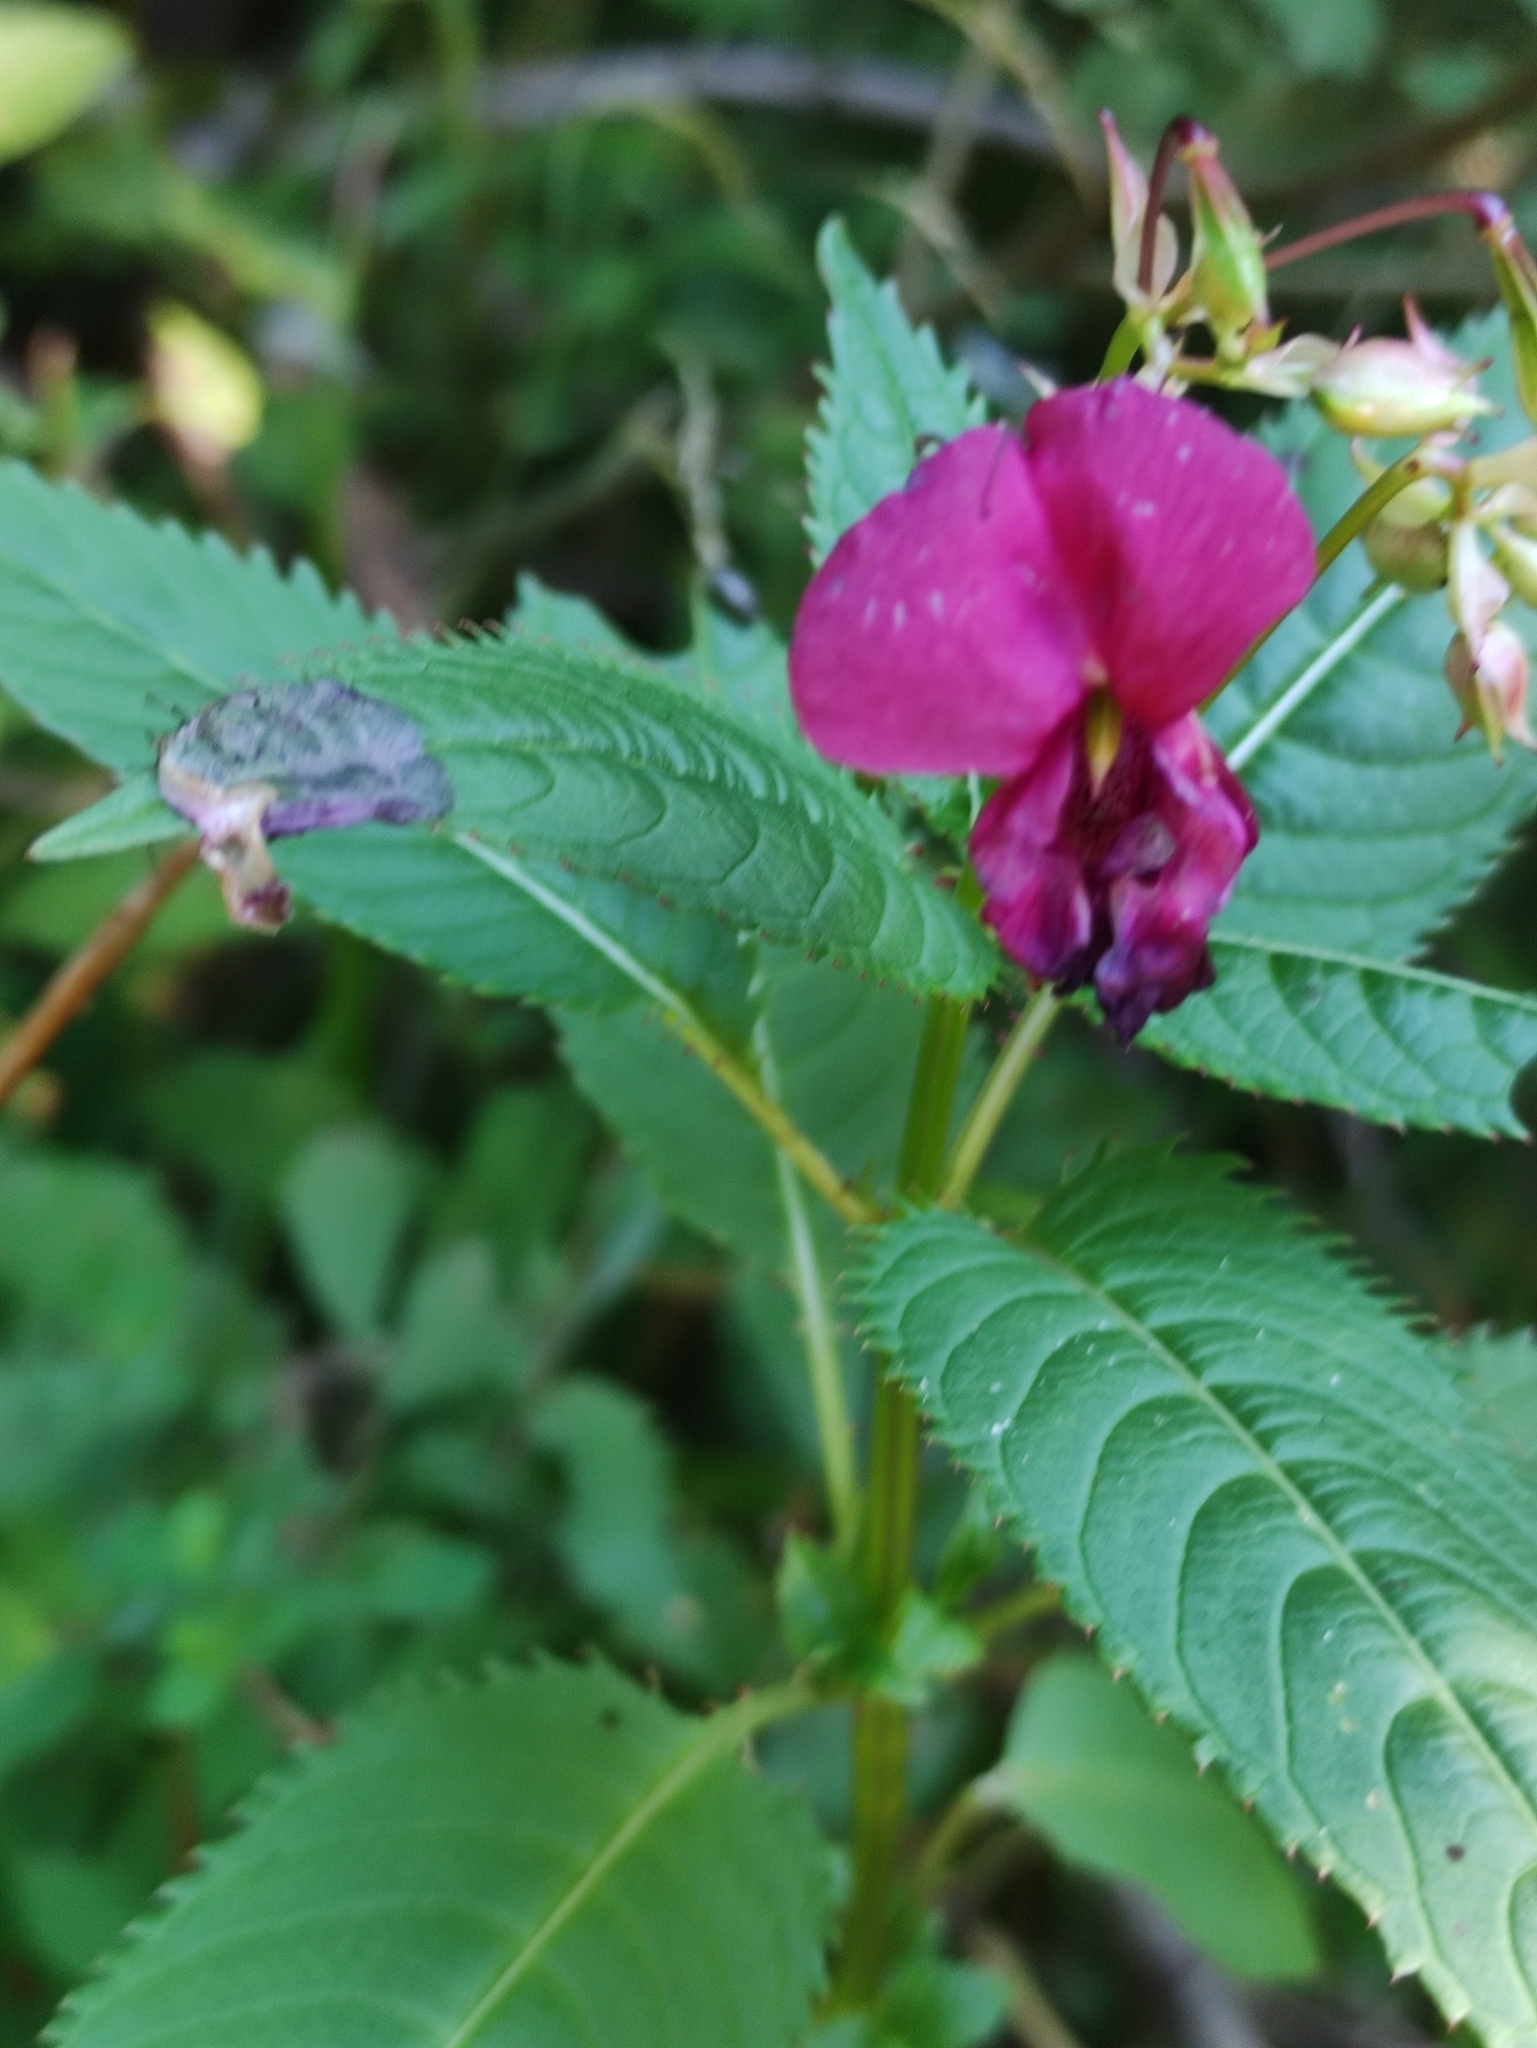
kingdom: Plantae
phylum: Tracheophyta
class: Magnoliopsida
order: Ericales
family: Balsaminaceae
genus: Impatiens
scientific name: Impatiens glandulifera
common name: Himalayan balsam
